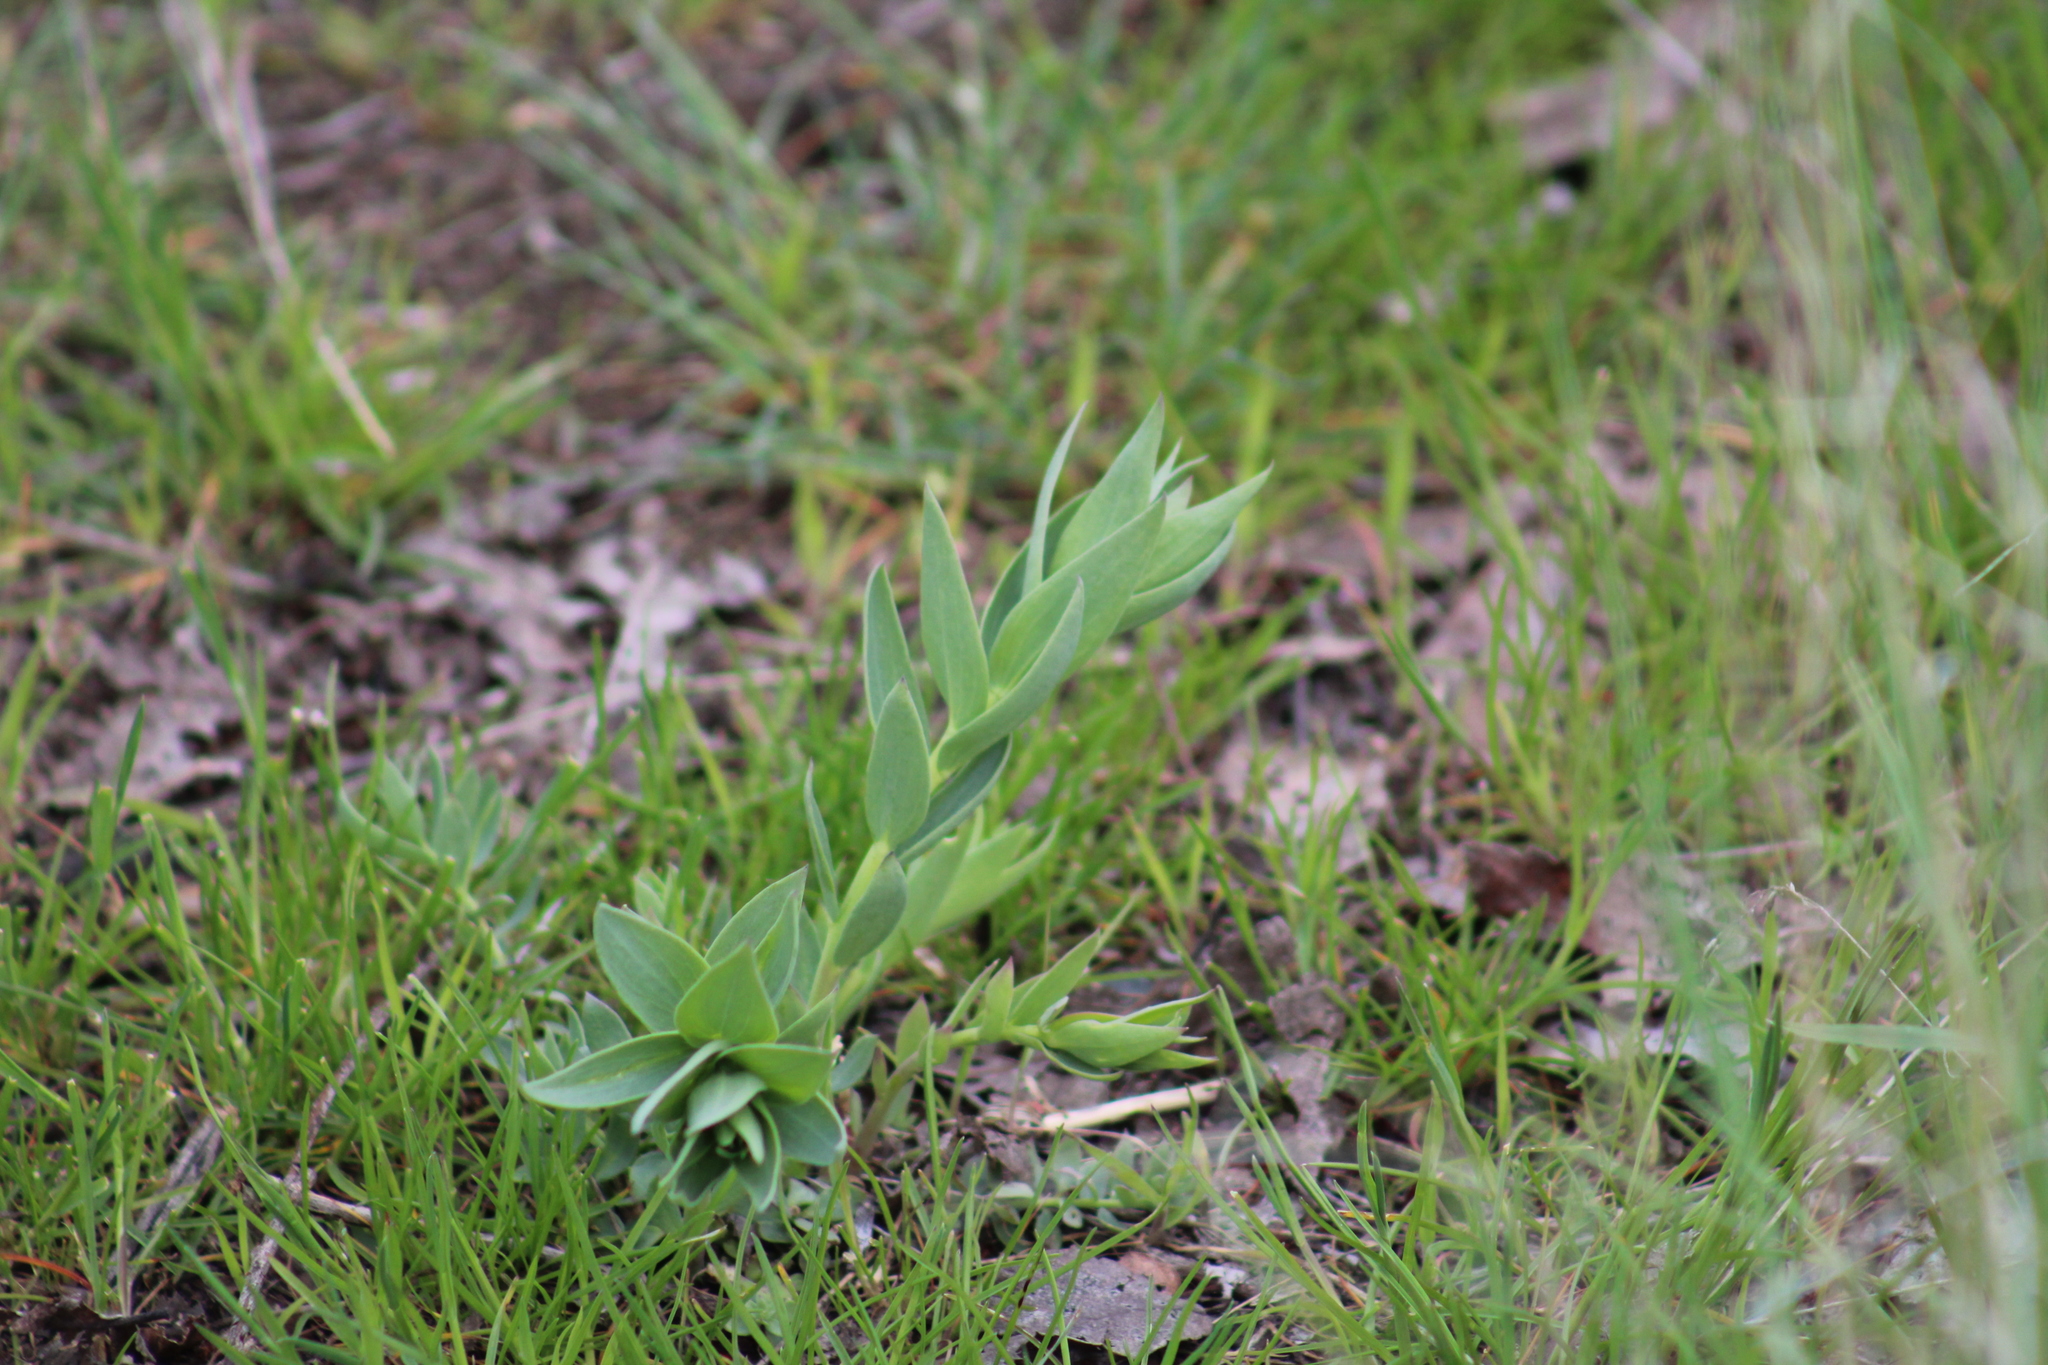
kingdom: Plantae
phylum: Tracheophyta
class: Magnoliopsida
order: Lamiales
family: Plantaginaceae
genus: Linaria
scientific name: Linaria grandiflora
